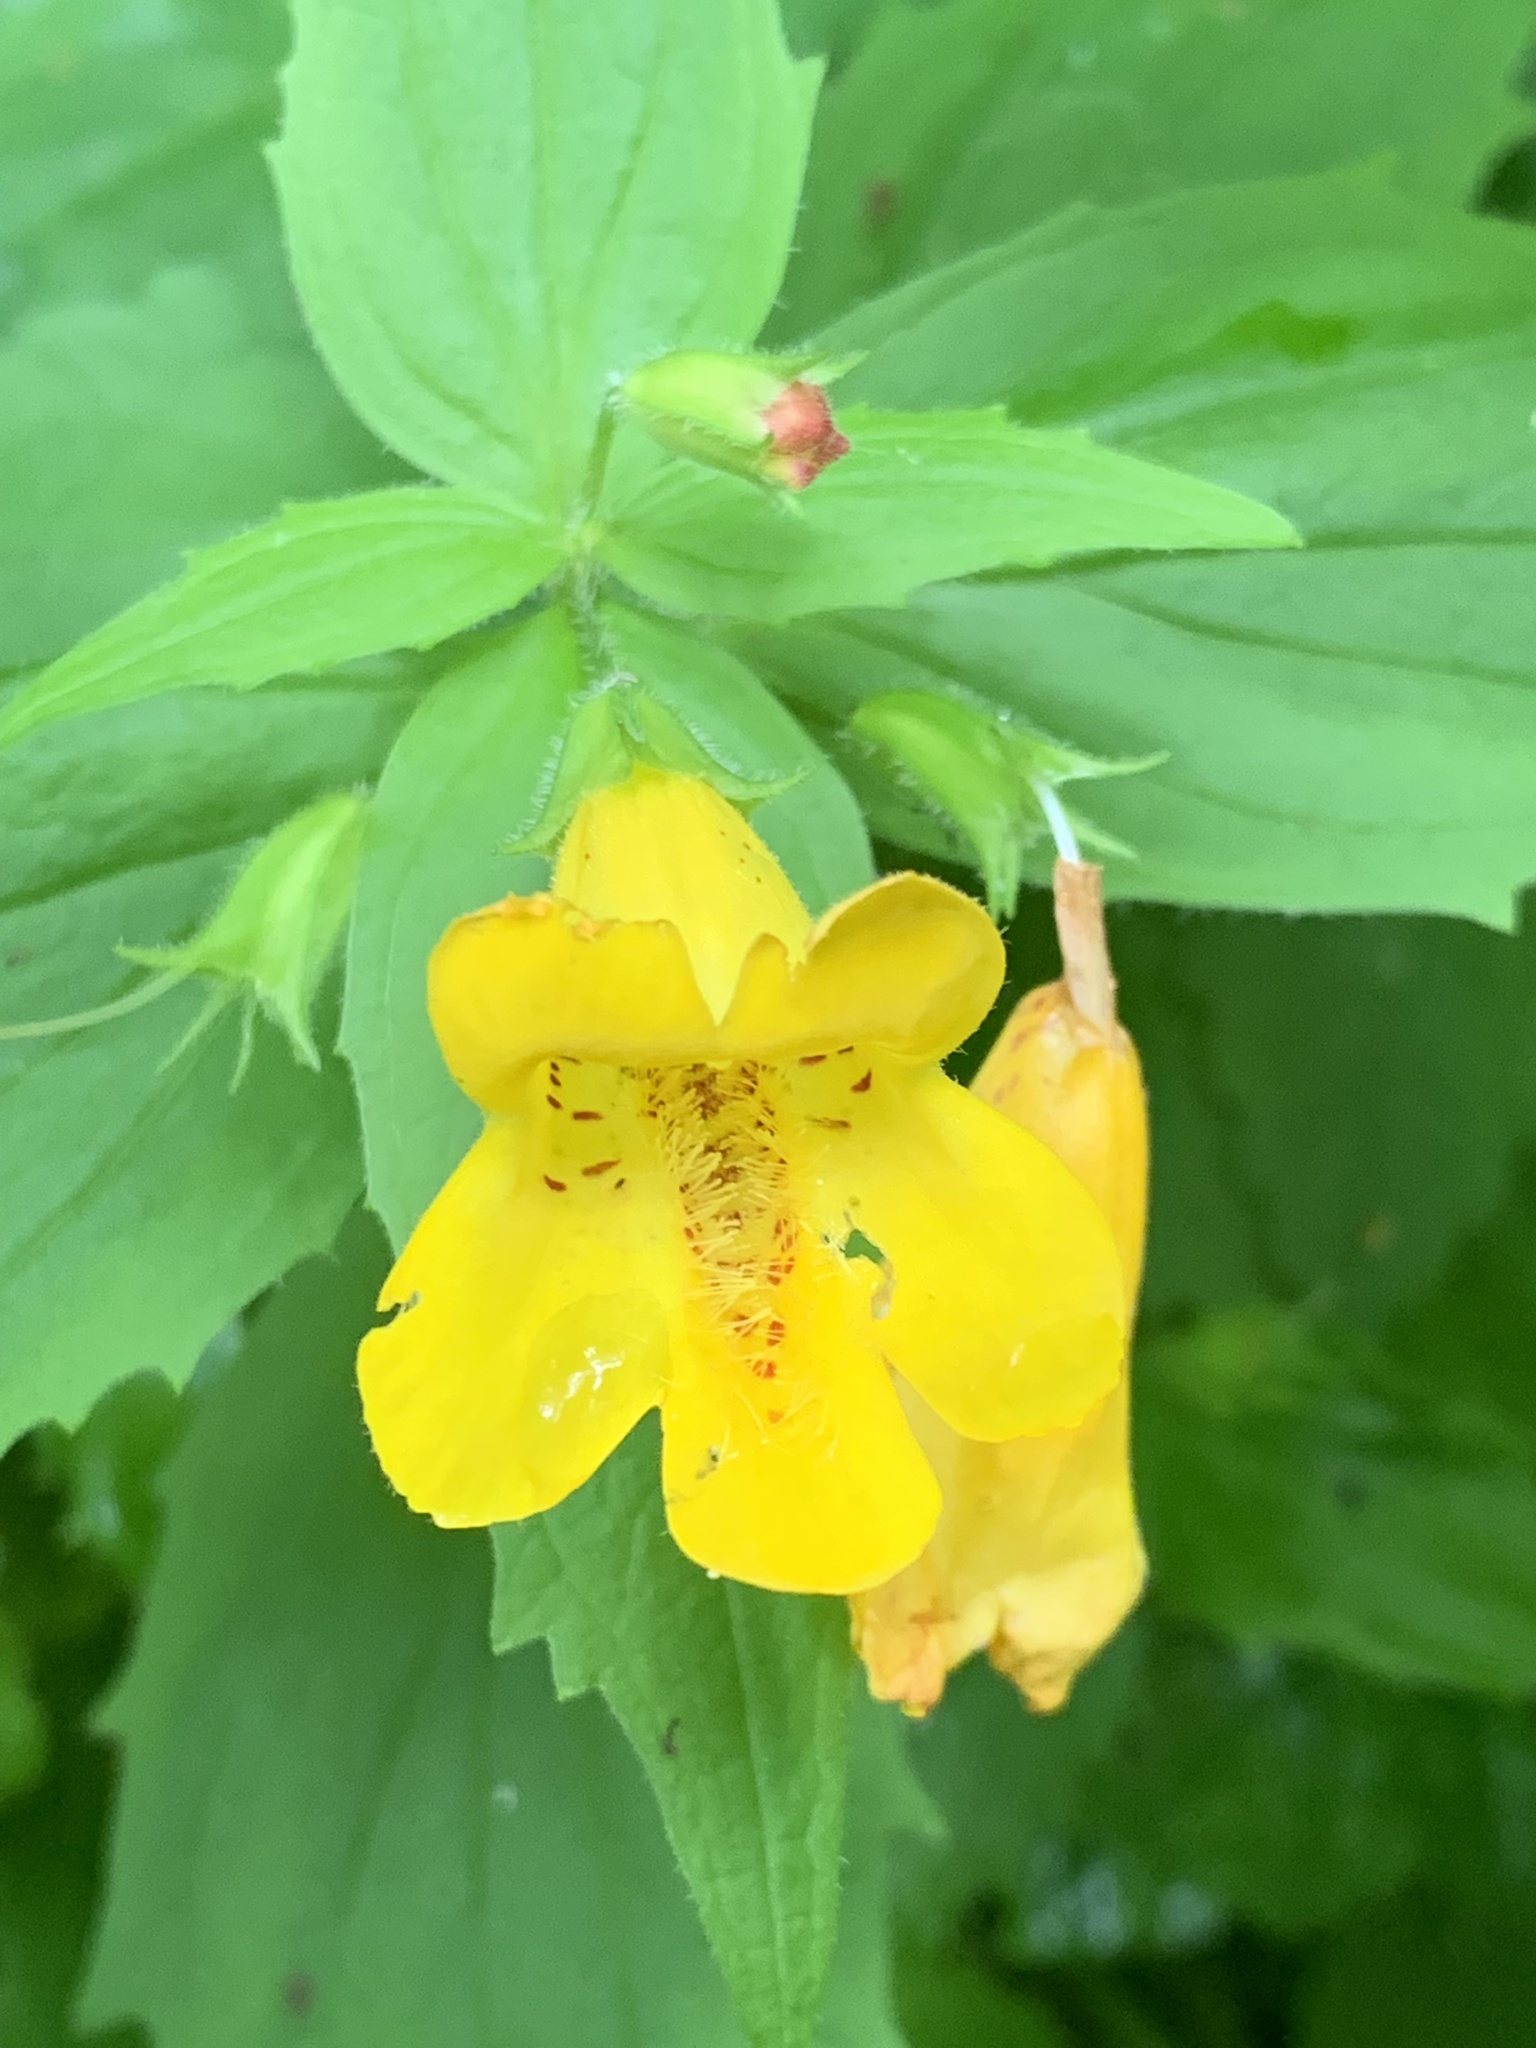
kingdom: Plantae
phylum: Tracheophyta
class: Magnoliopsida
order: Lamiales
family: Phrymaceae
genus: Erythranthe
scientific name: Erythranthe dentata
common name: Coastal monkeyflower
